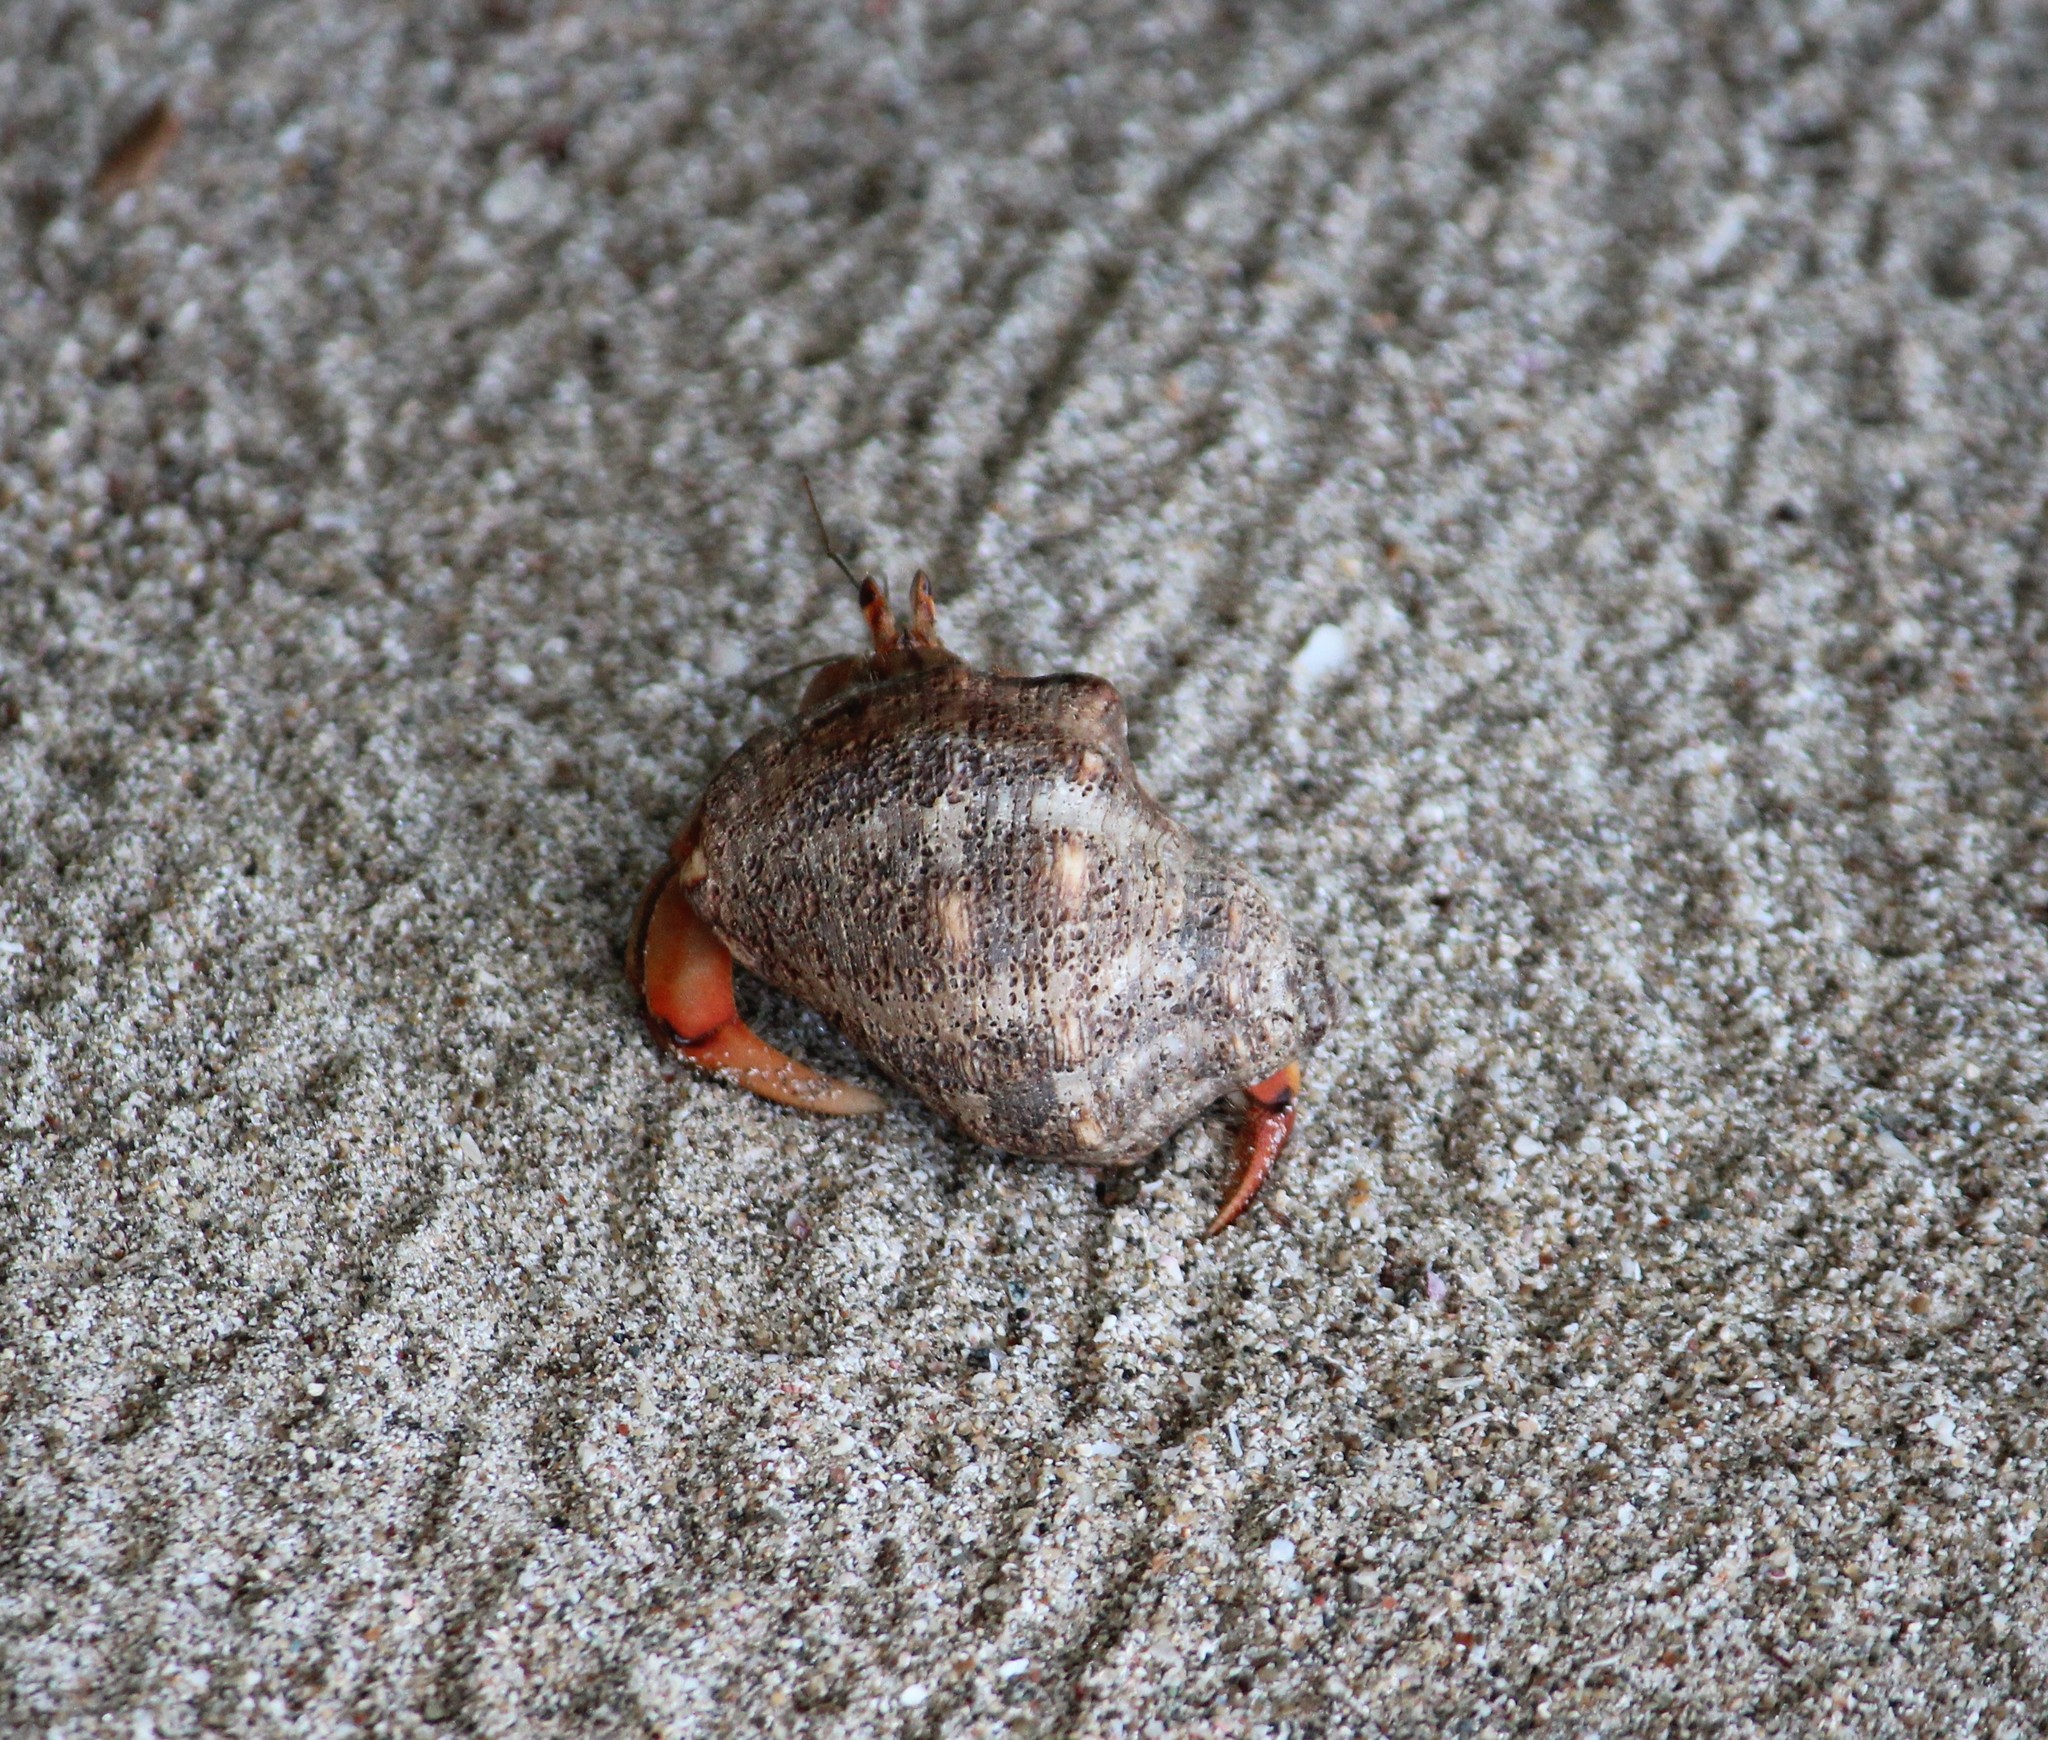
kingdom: Animalia
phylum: Arthropoda
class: Malacostraca
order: Decapoda
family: Coenobitidae
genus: Coenobita
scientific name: Coenobita compressus
